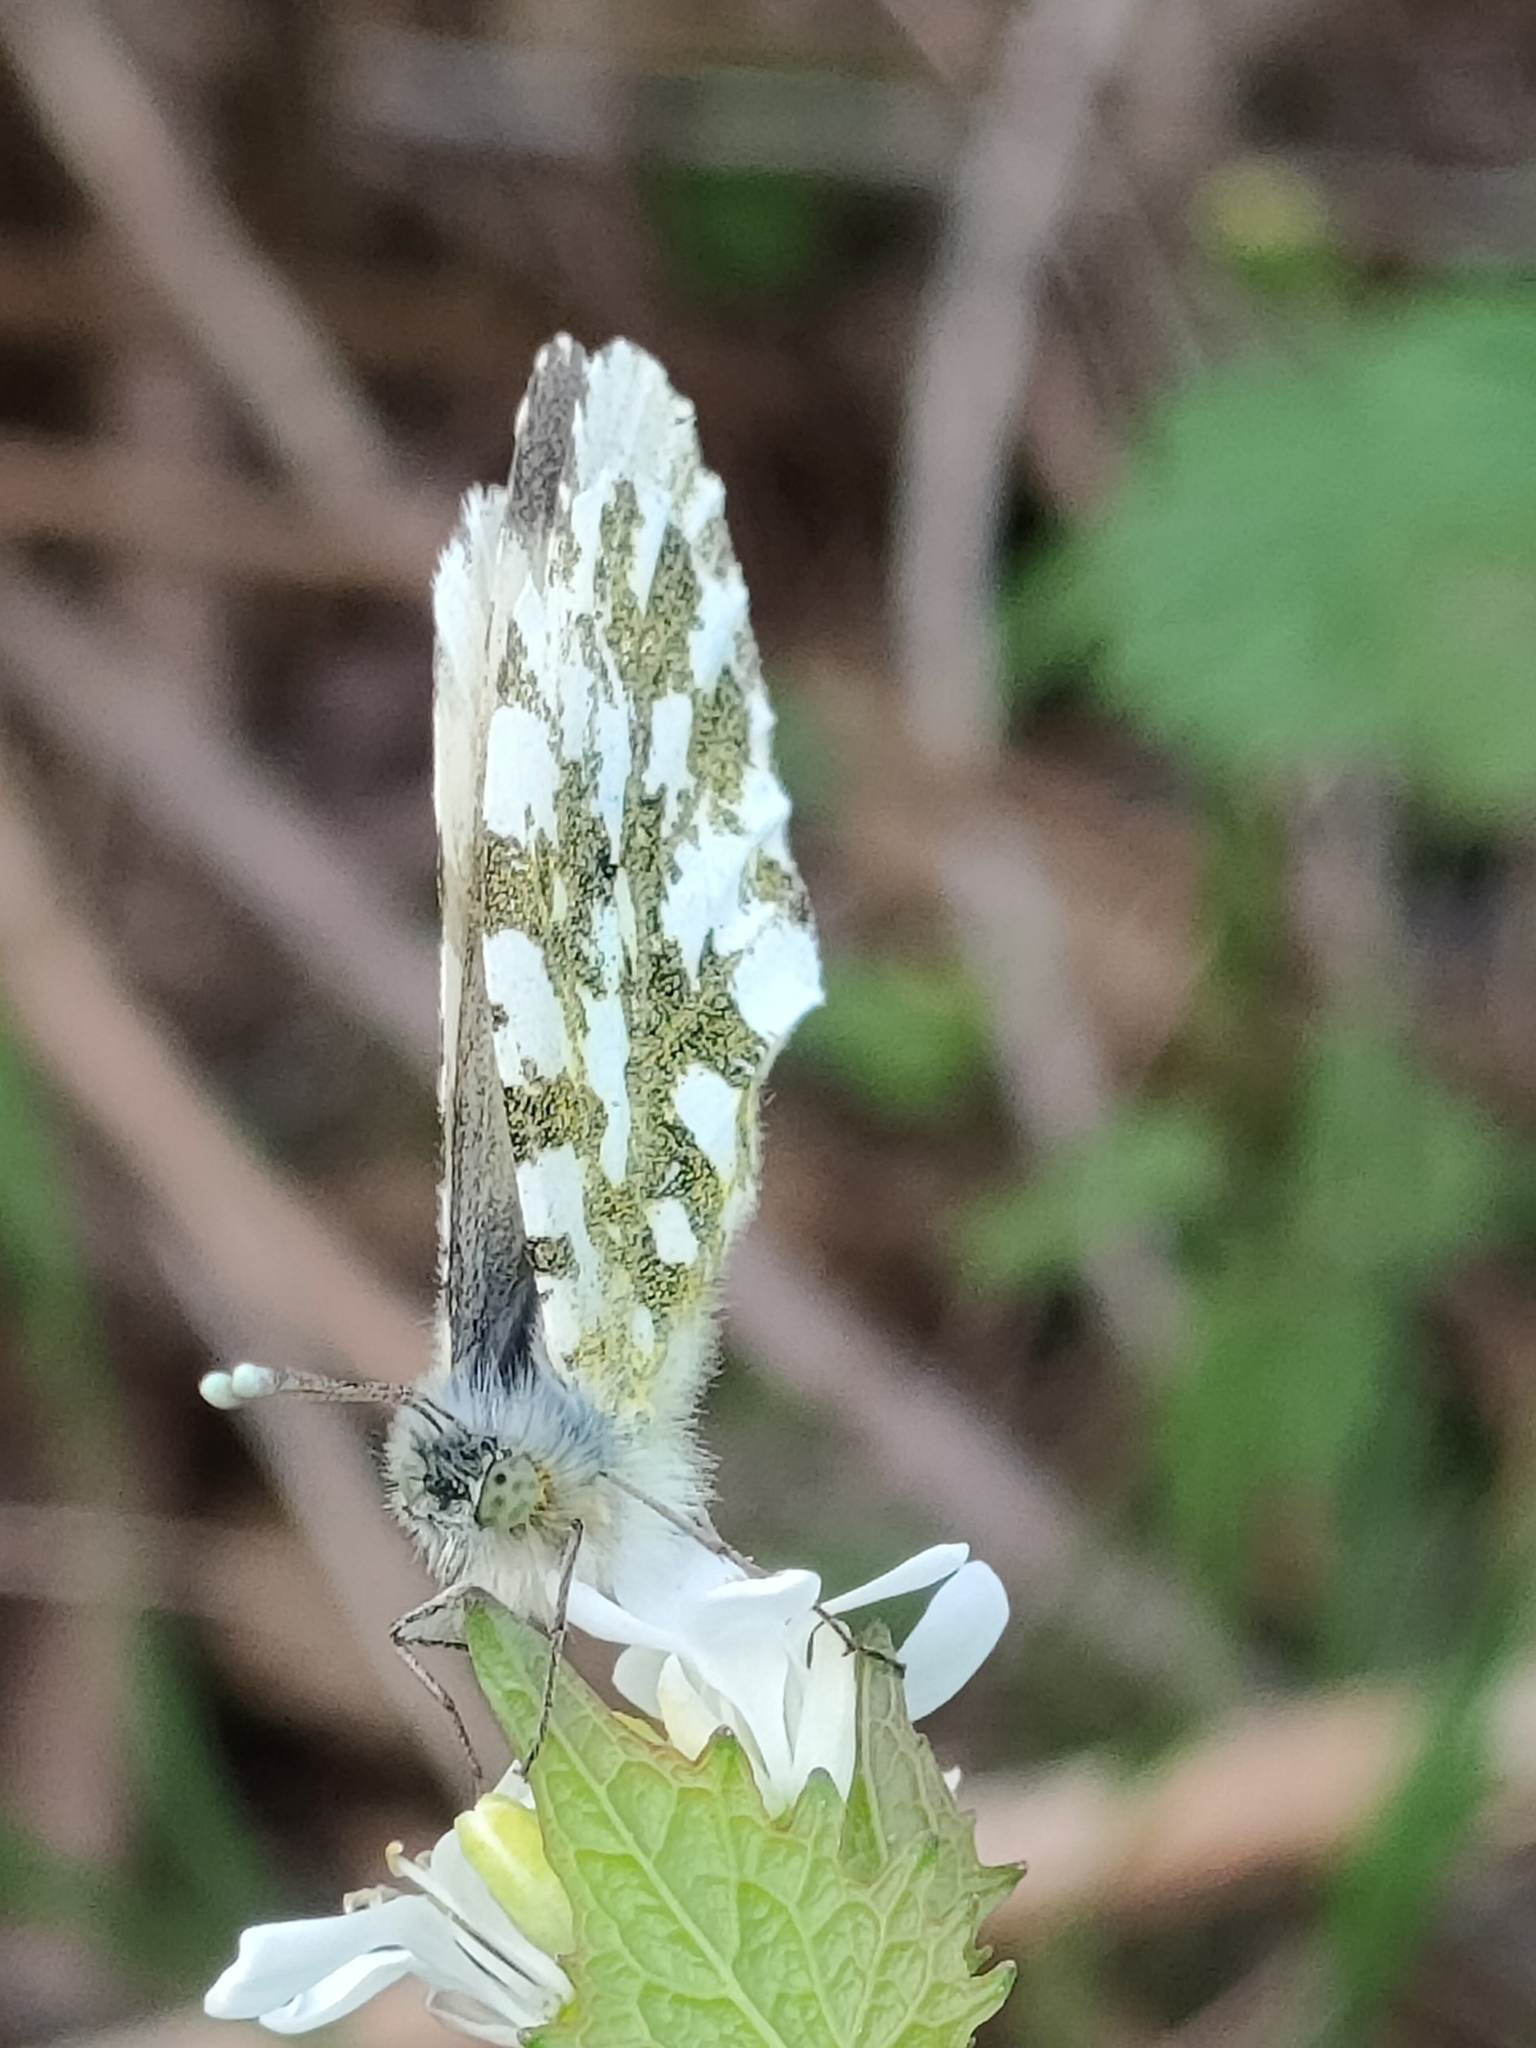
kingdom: Animalia
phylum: Arthropoda
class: Insecta
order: Lepidoptera
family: Pieridae
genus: Anthocharis
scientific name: Anthocharis cardamines
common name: Orange-tip
